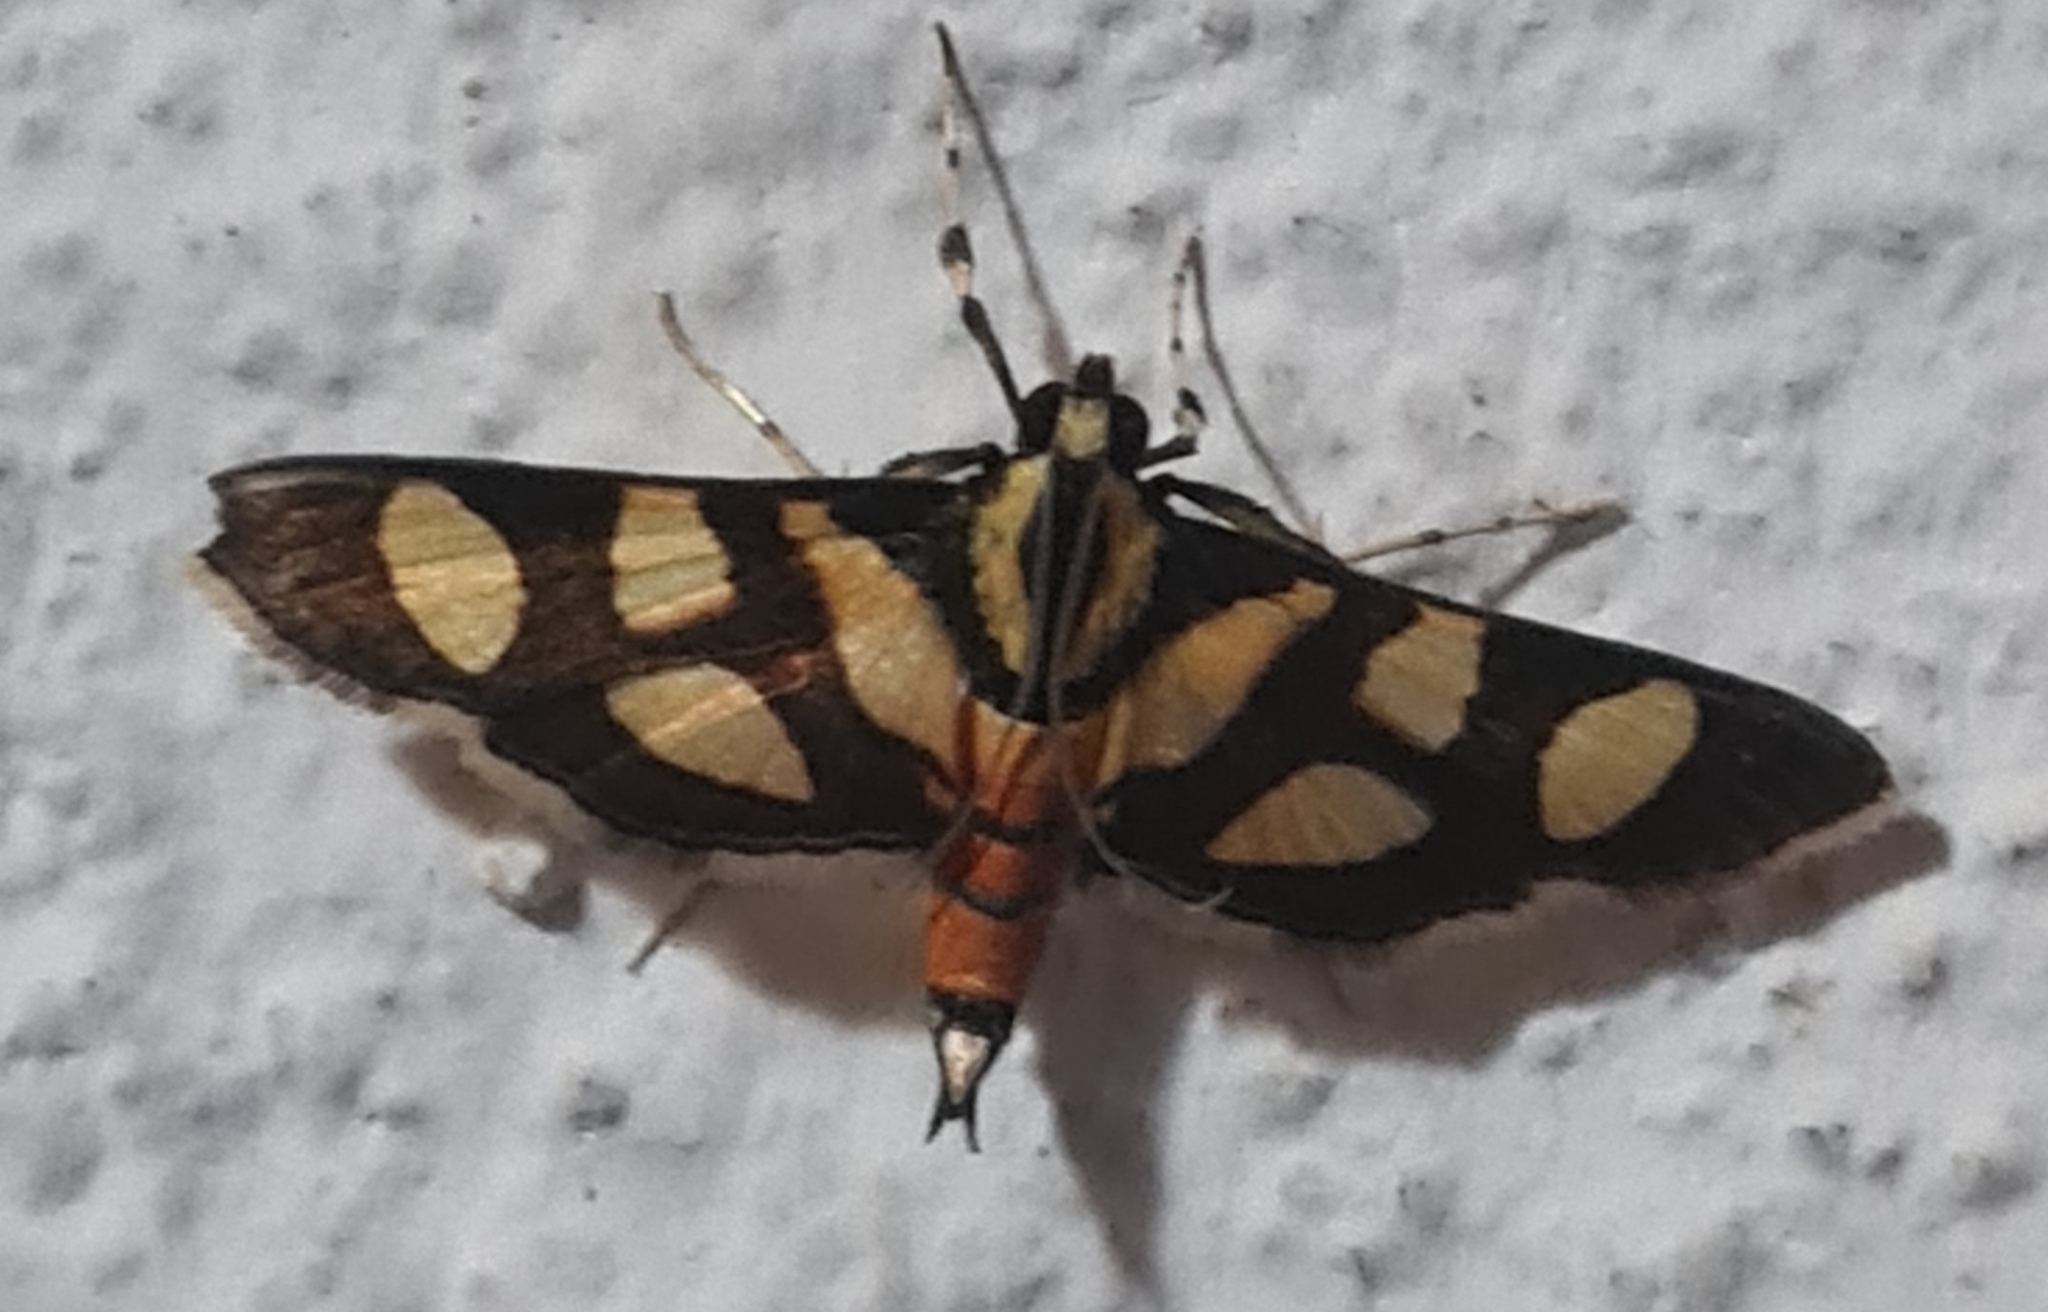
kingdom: Animalia
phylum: Arthropoda
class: Insecta
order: Lepidoptera
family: Crambidae
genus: Syngamia
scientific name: Syngamia florella
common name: Orange-spotted flower moth
